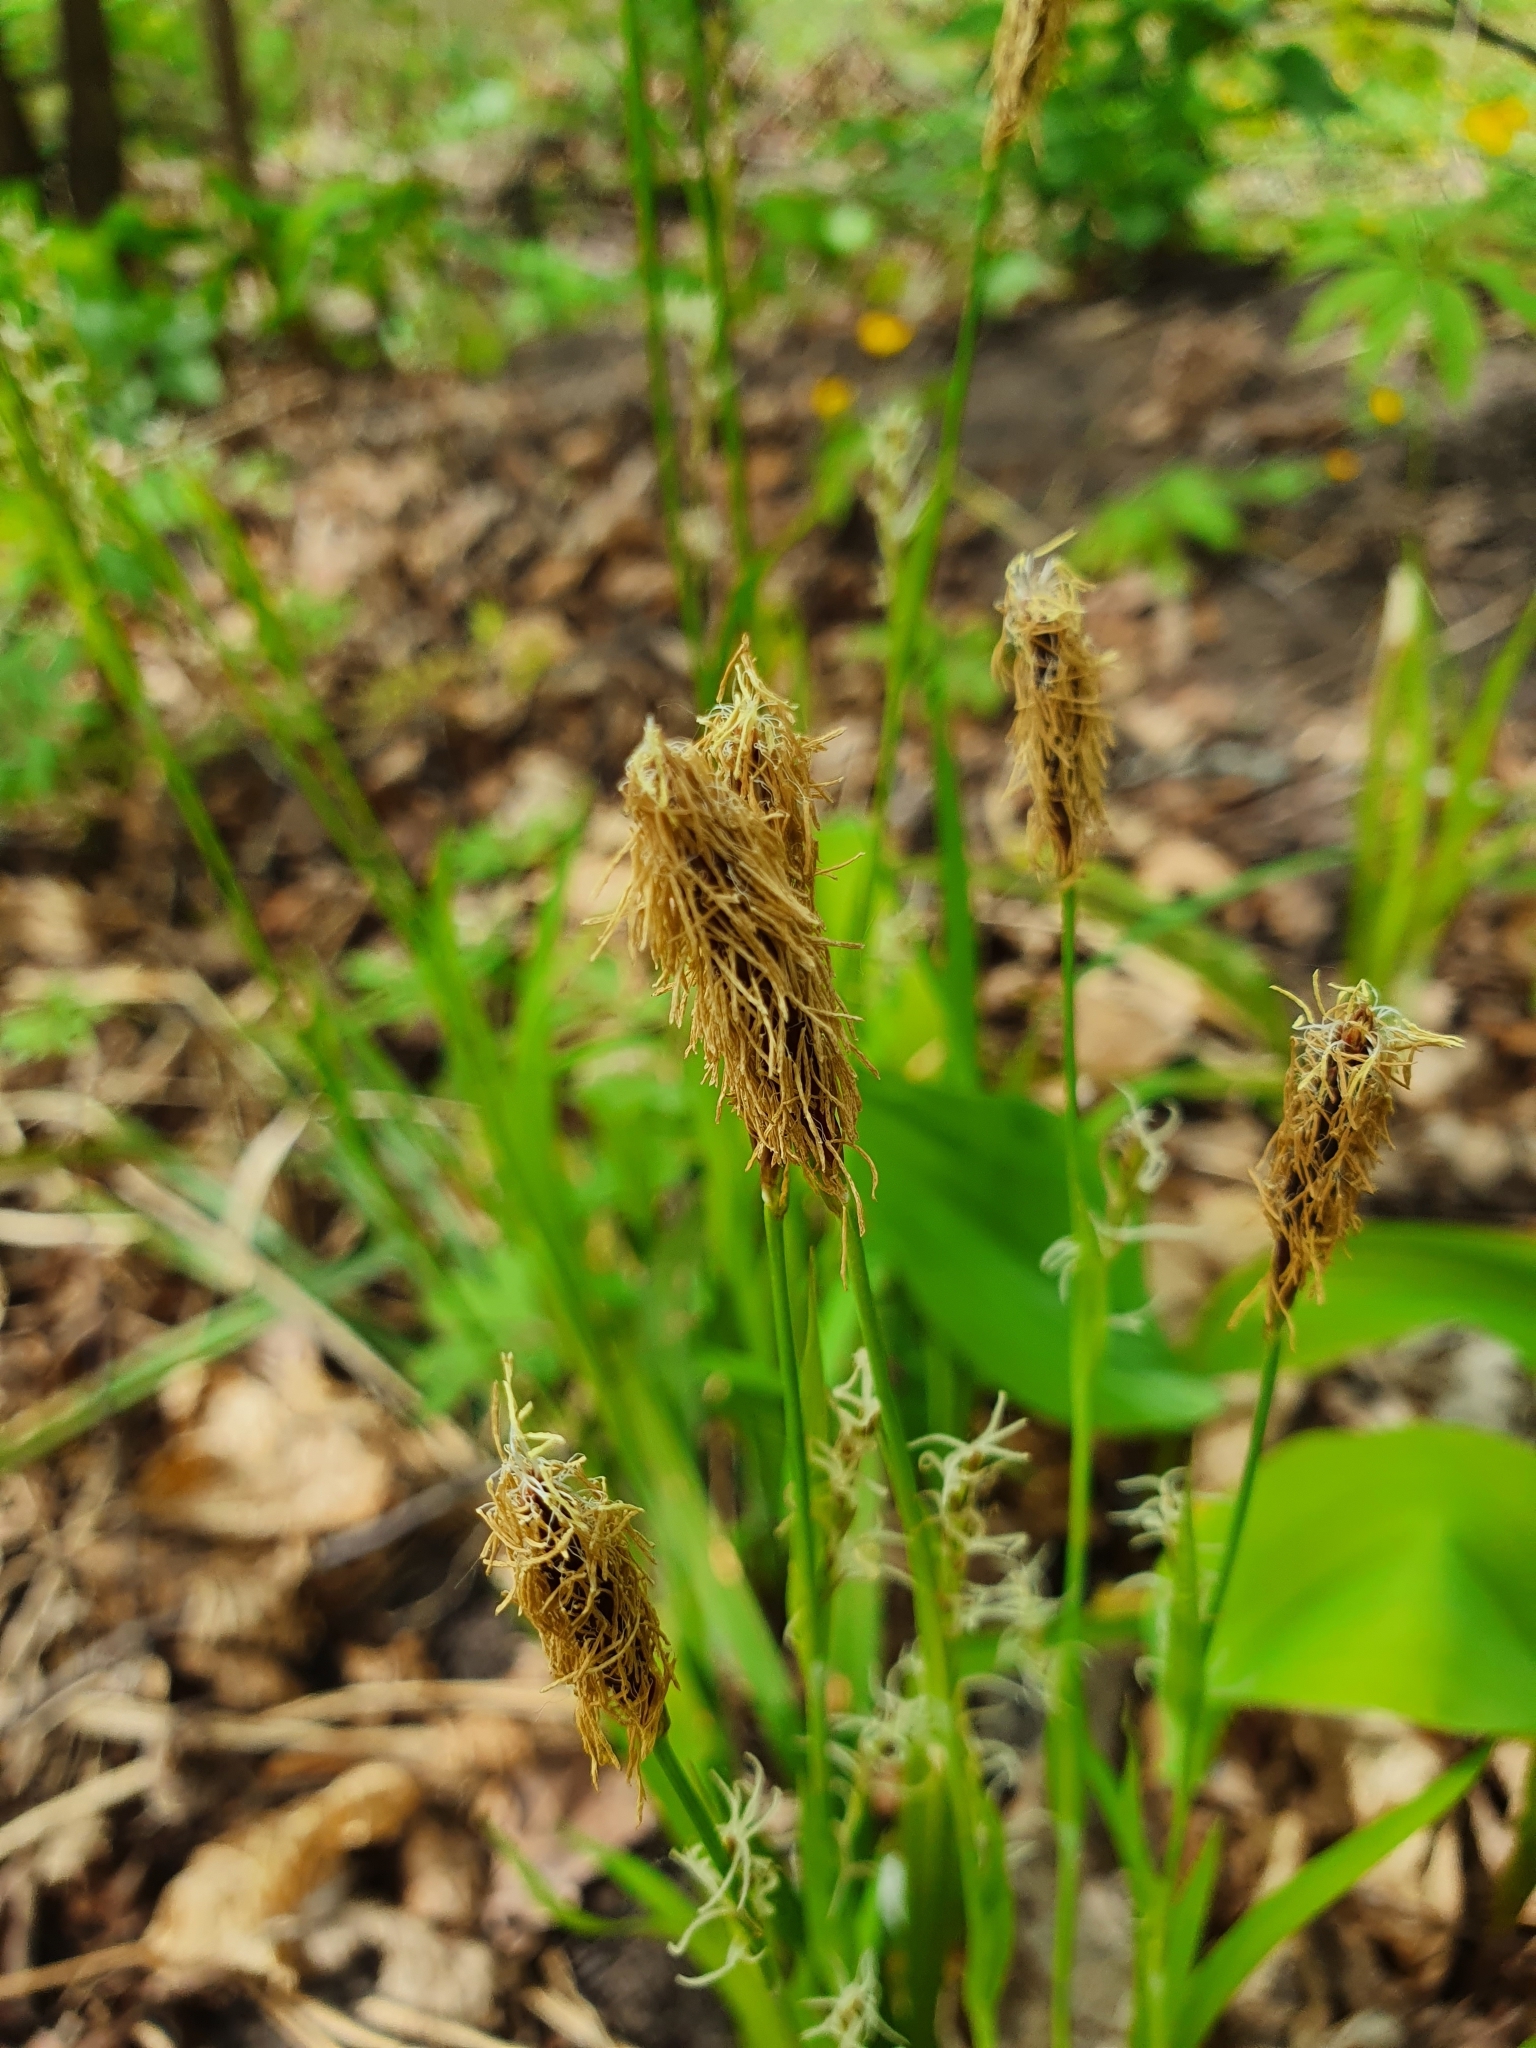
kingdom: Plantae
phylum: Tracheophyta
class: Liliopsida
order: Poales
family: Cyperaceae
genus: Carex
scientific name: Carex pilosa
